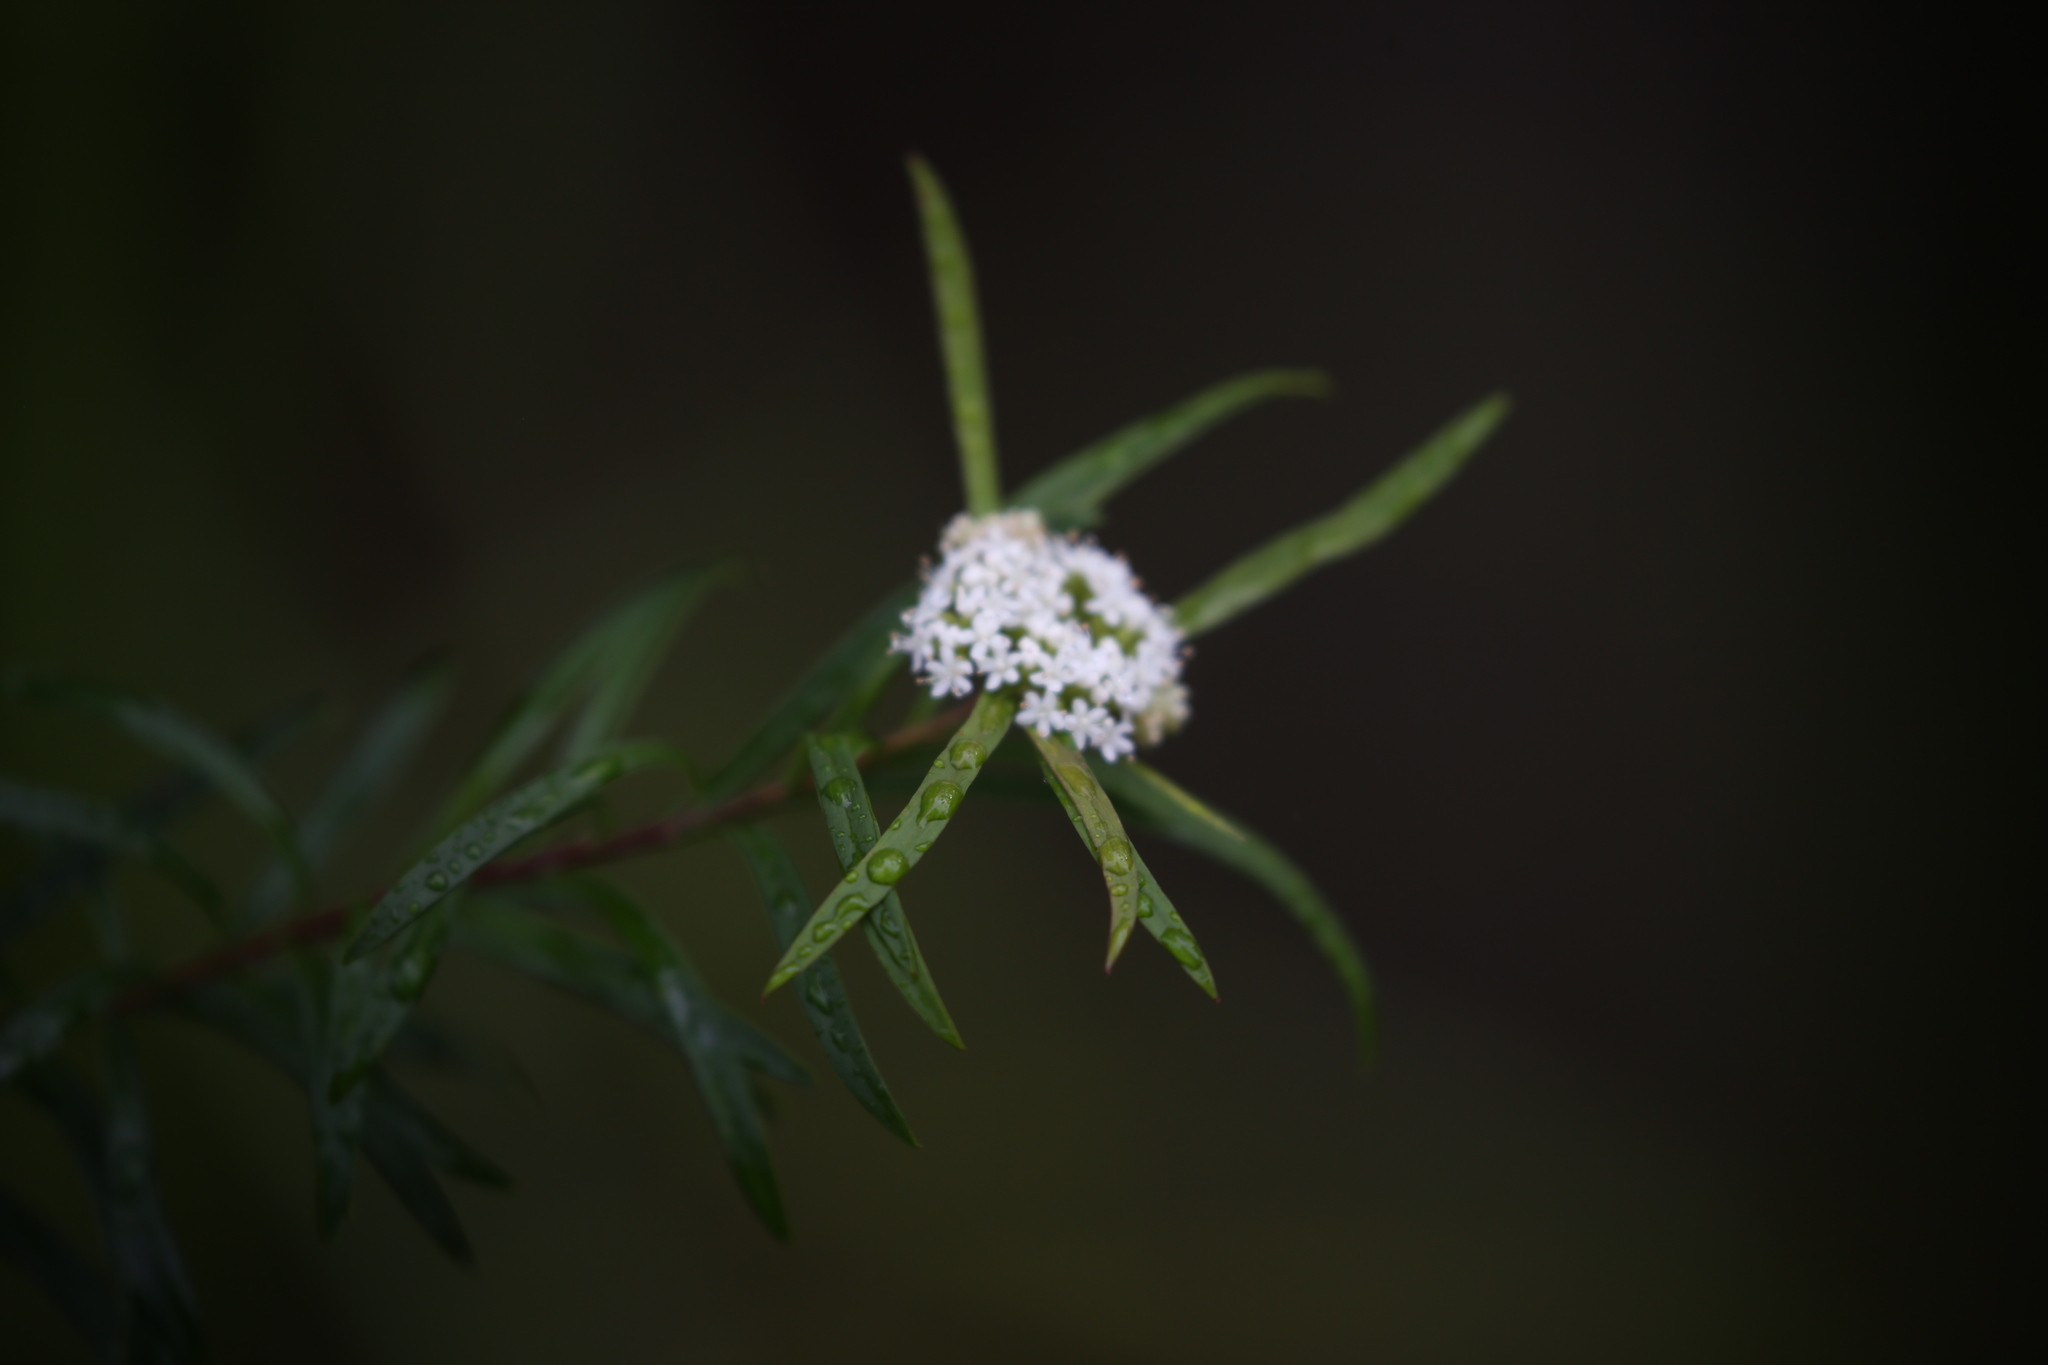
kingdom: Plantae
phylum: Tracheophyta
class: Magnoliopsida
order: Apiales
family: Apiaceae
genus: Platysace
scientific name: Platysace lanceolata
